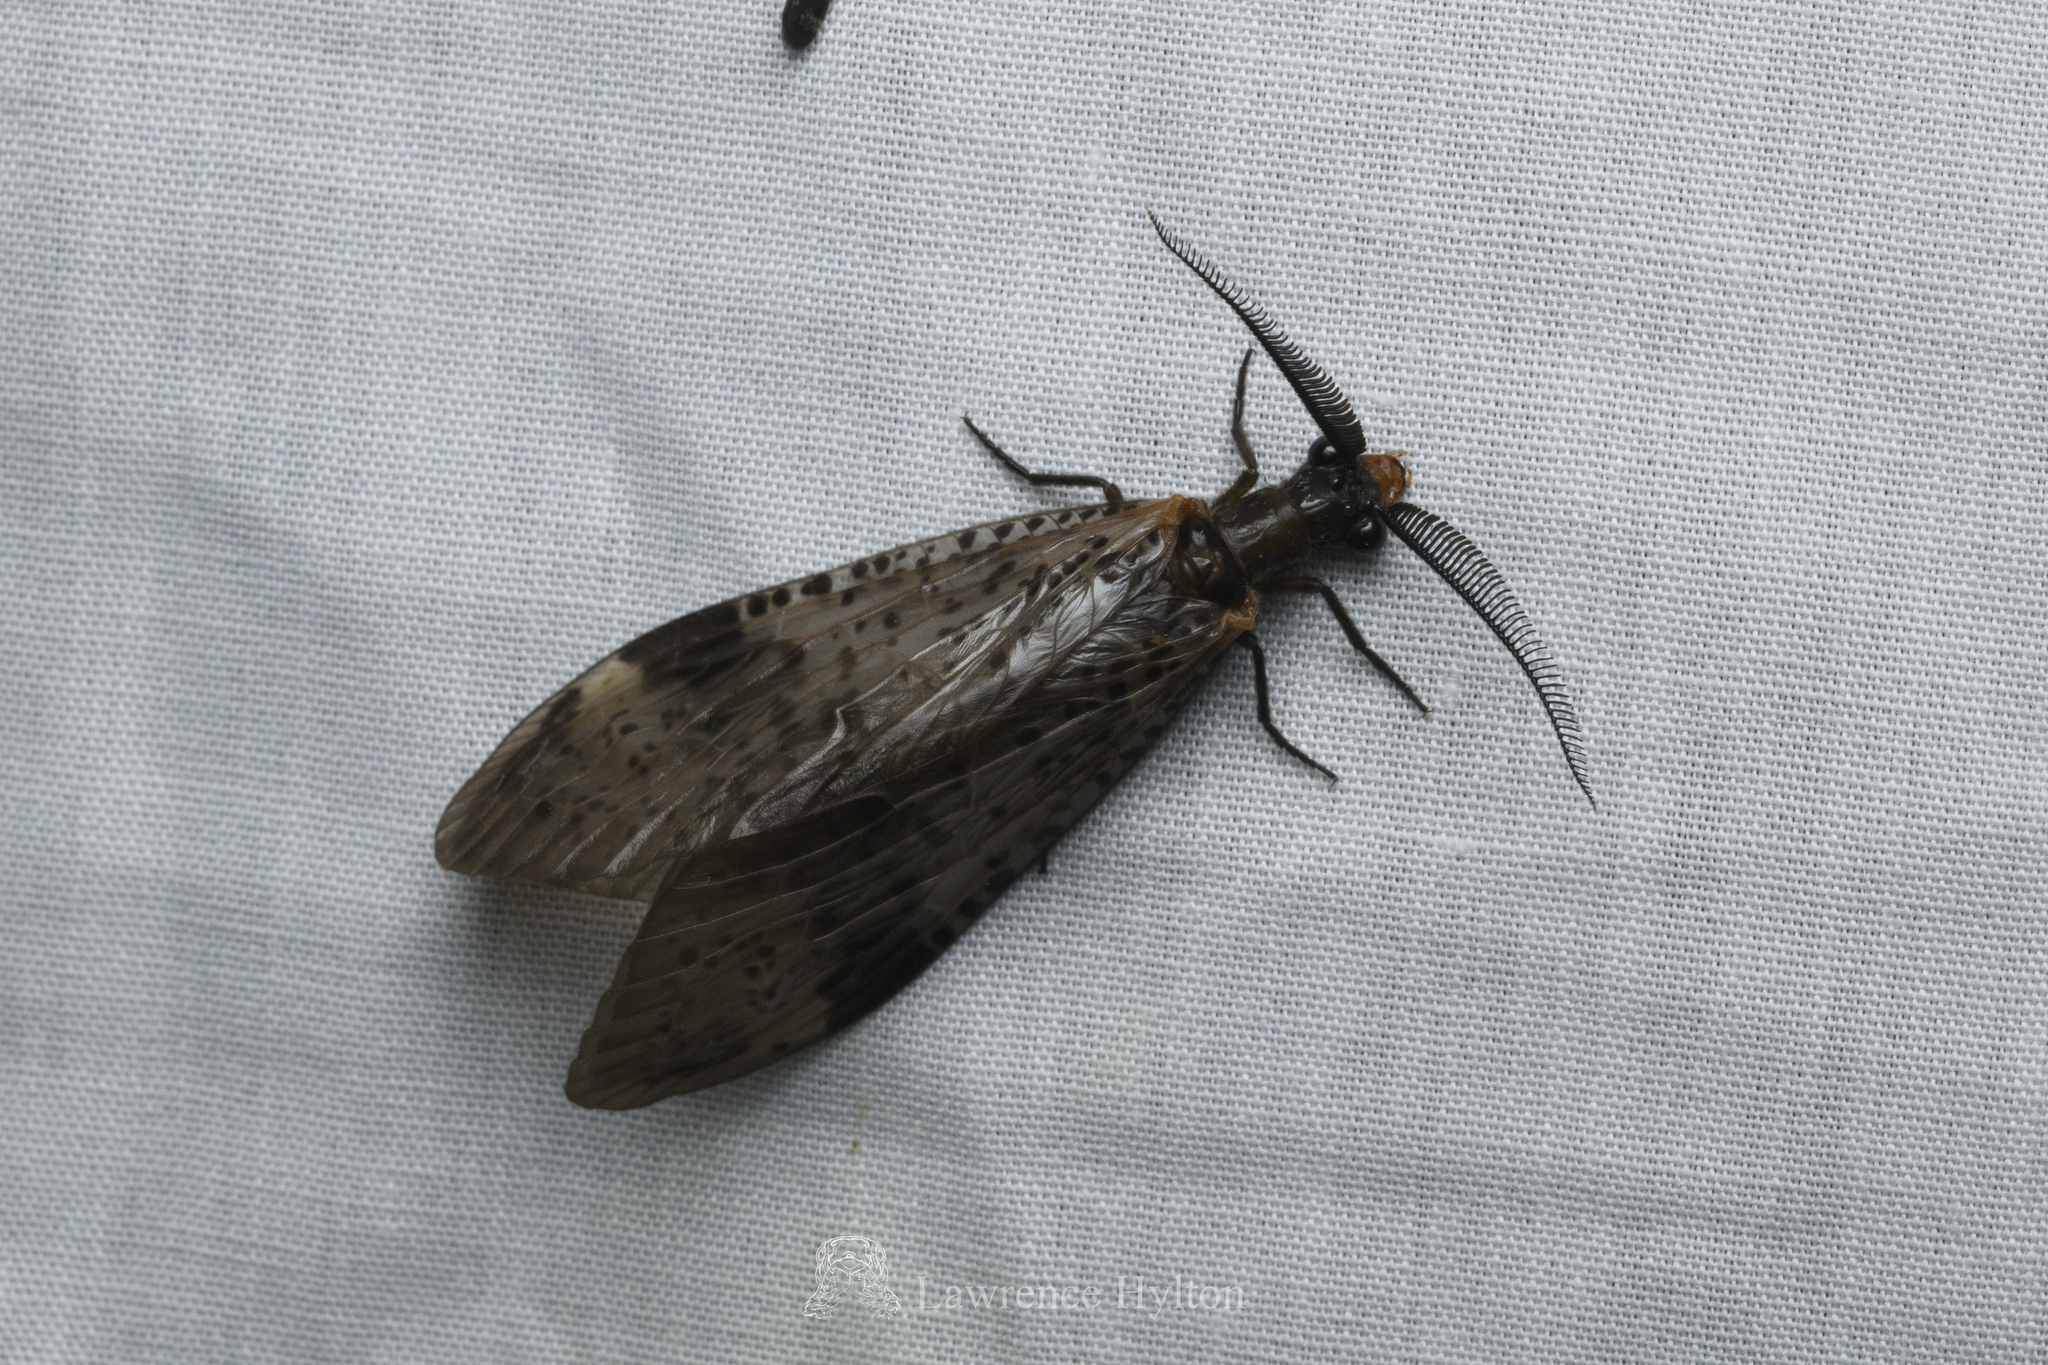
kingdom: Animalia
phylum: Arthropoda
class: Insecta
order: Megaloptera
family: Corydalidae
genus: Neochauliodes
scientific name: Neochauliodes koreanus
